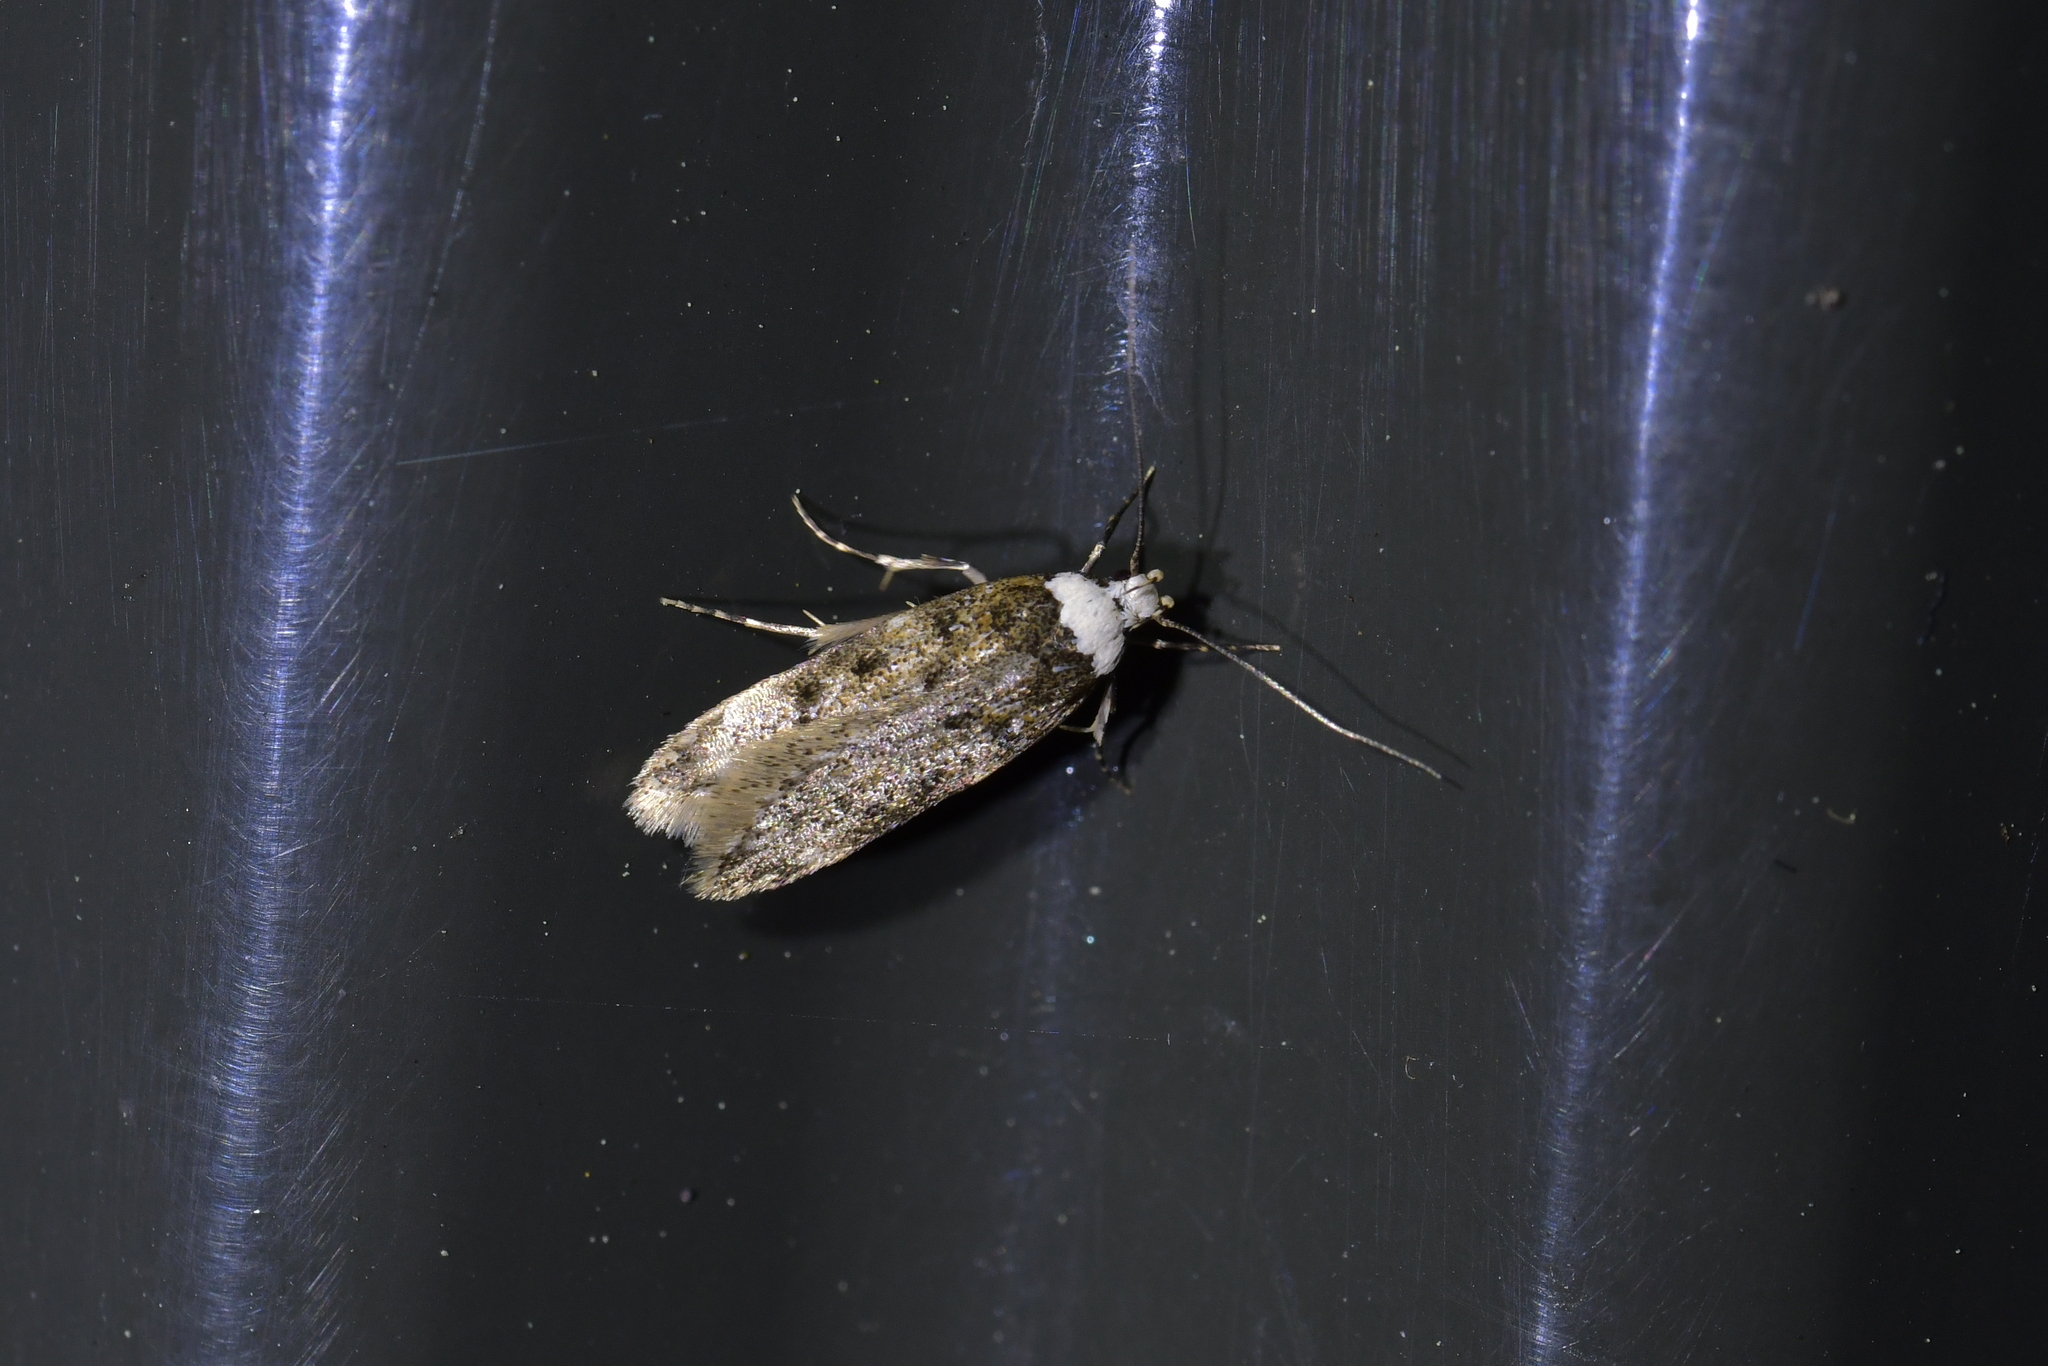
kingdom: Animalia
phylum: Arthropoda
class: Insecta
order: Lepidoptera
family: Oecophoridae
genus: Endrosis
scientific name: Endrosis sarcitrella
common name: White-shouldered house moth
